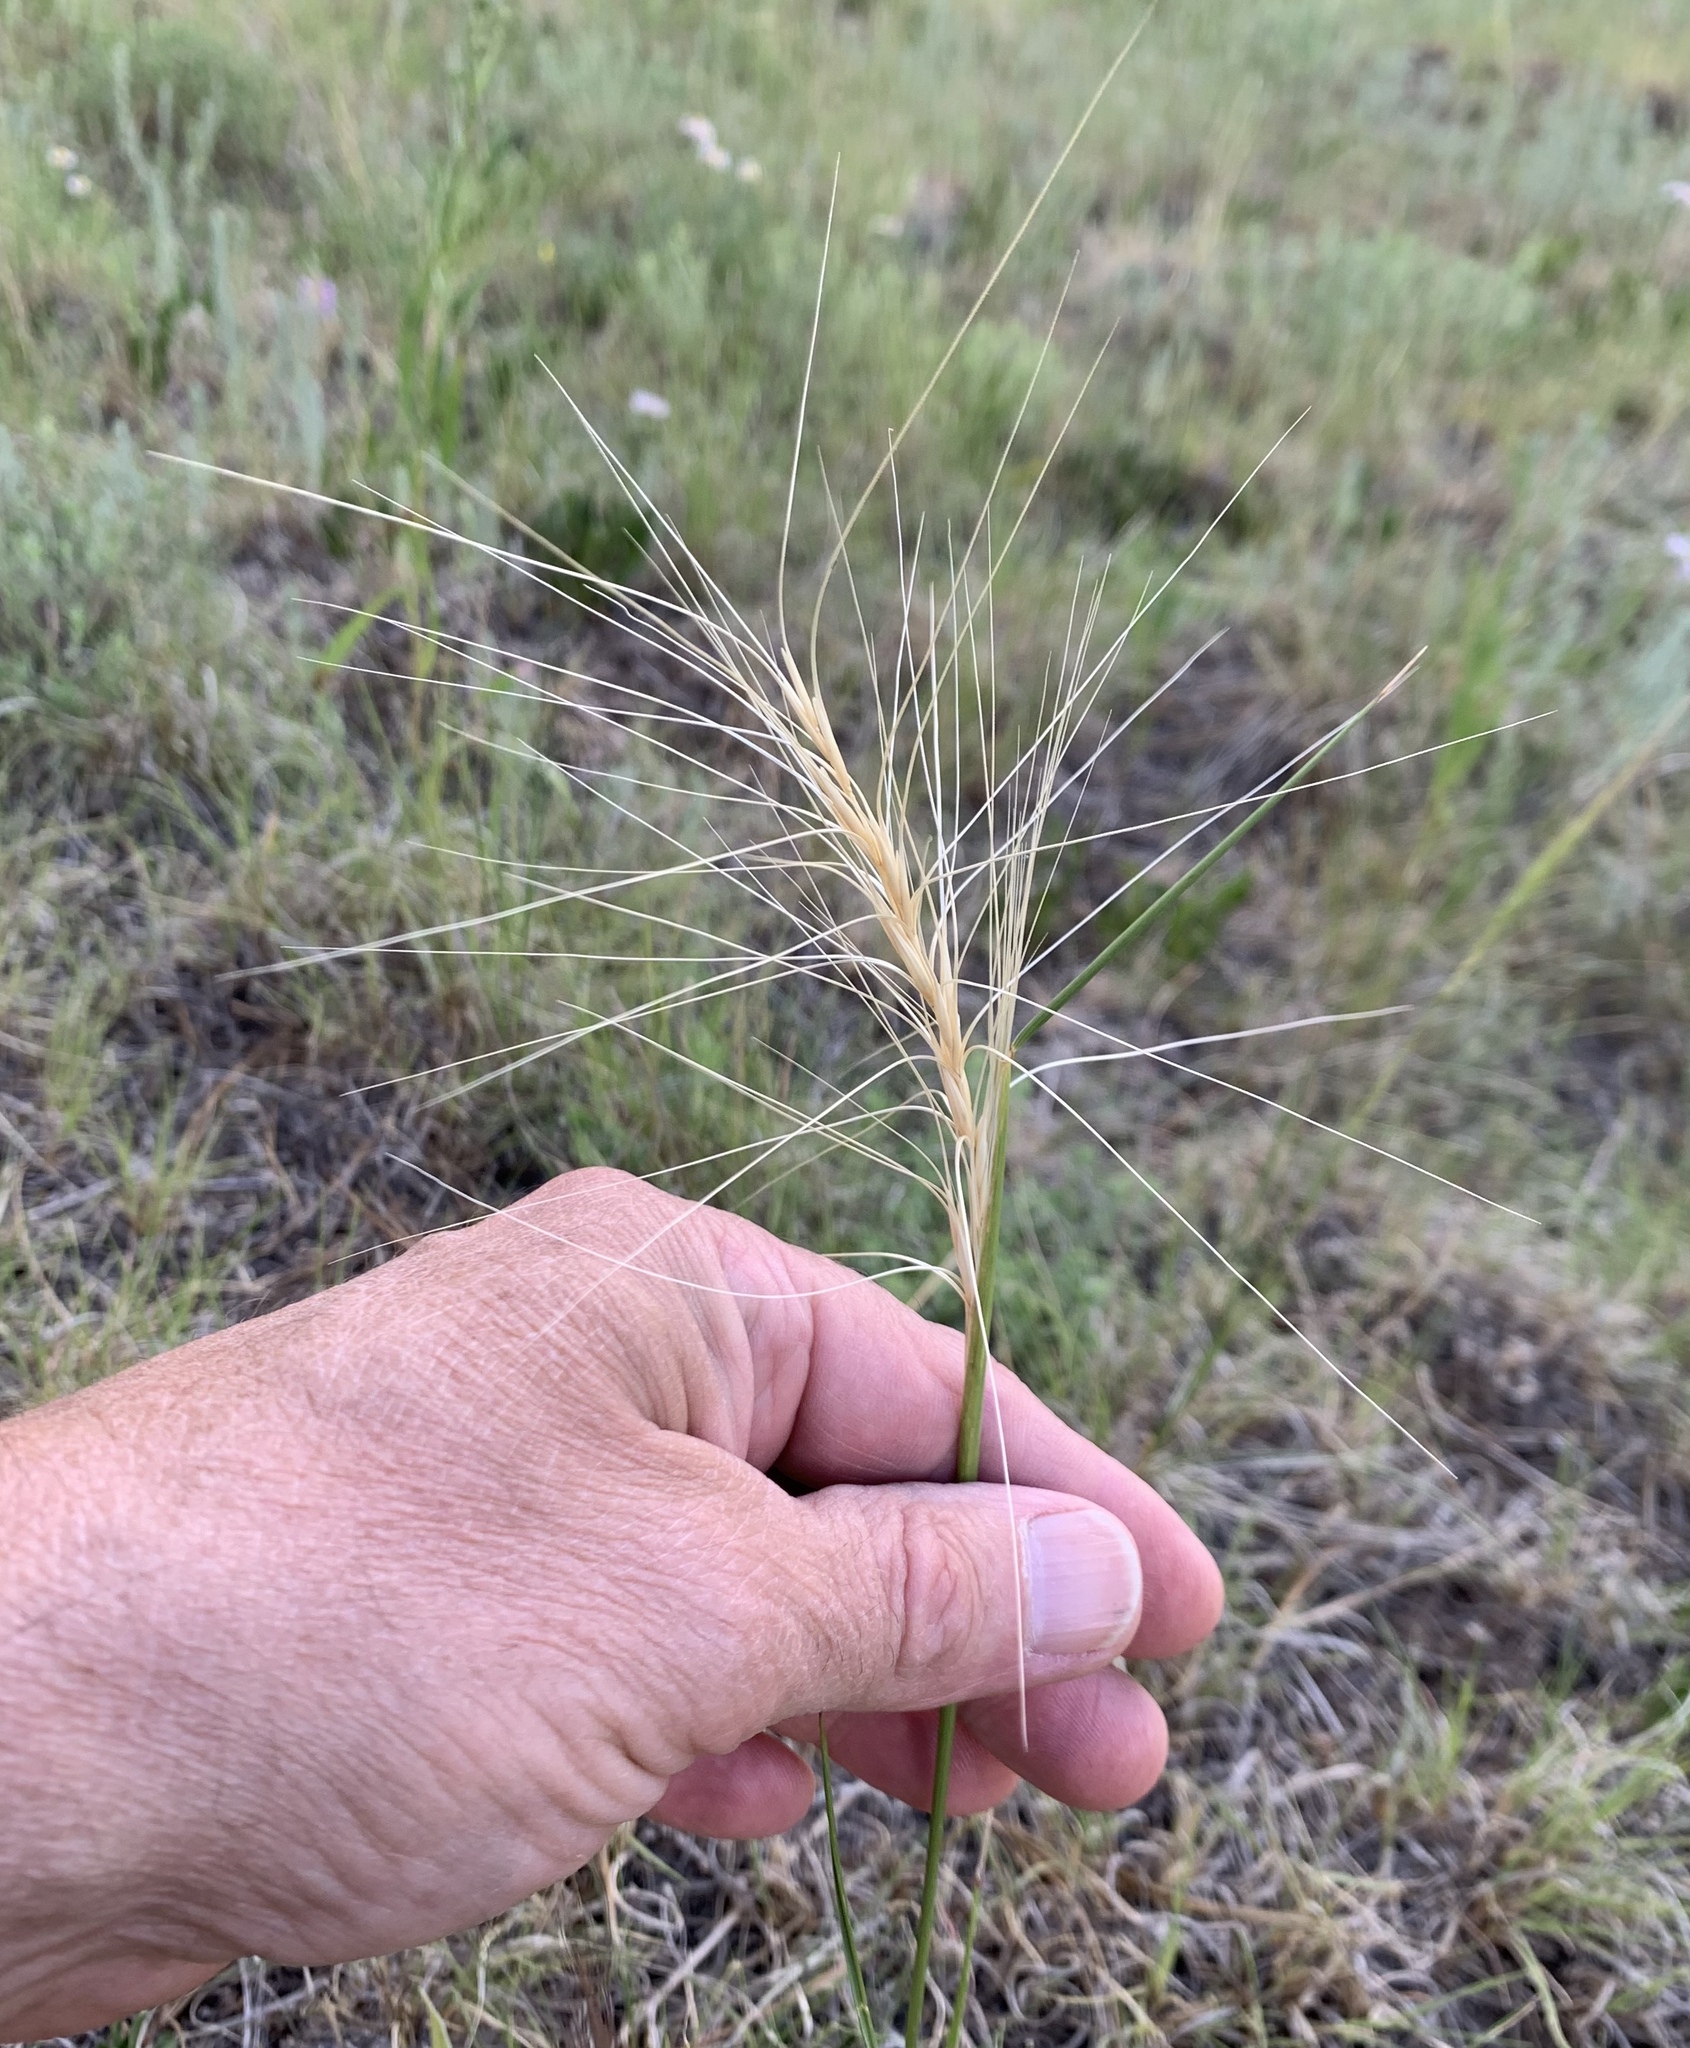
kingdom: Plantae
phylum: Tracheophyta
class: Liliopsida
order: Poales
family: Poaceae
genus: Elymus
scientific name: Elymus elymoides
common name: Bottlebrush squirreltail
